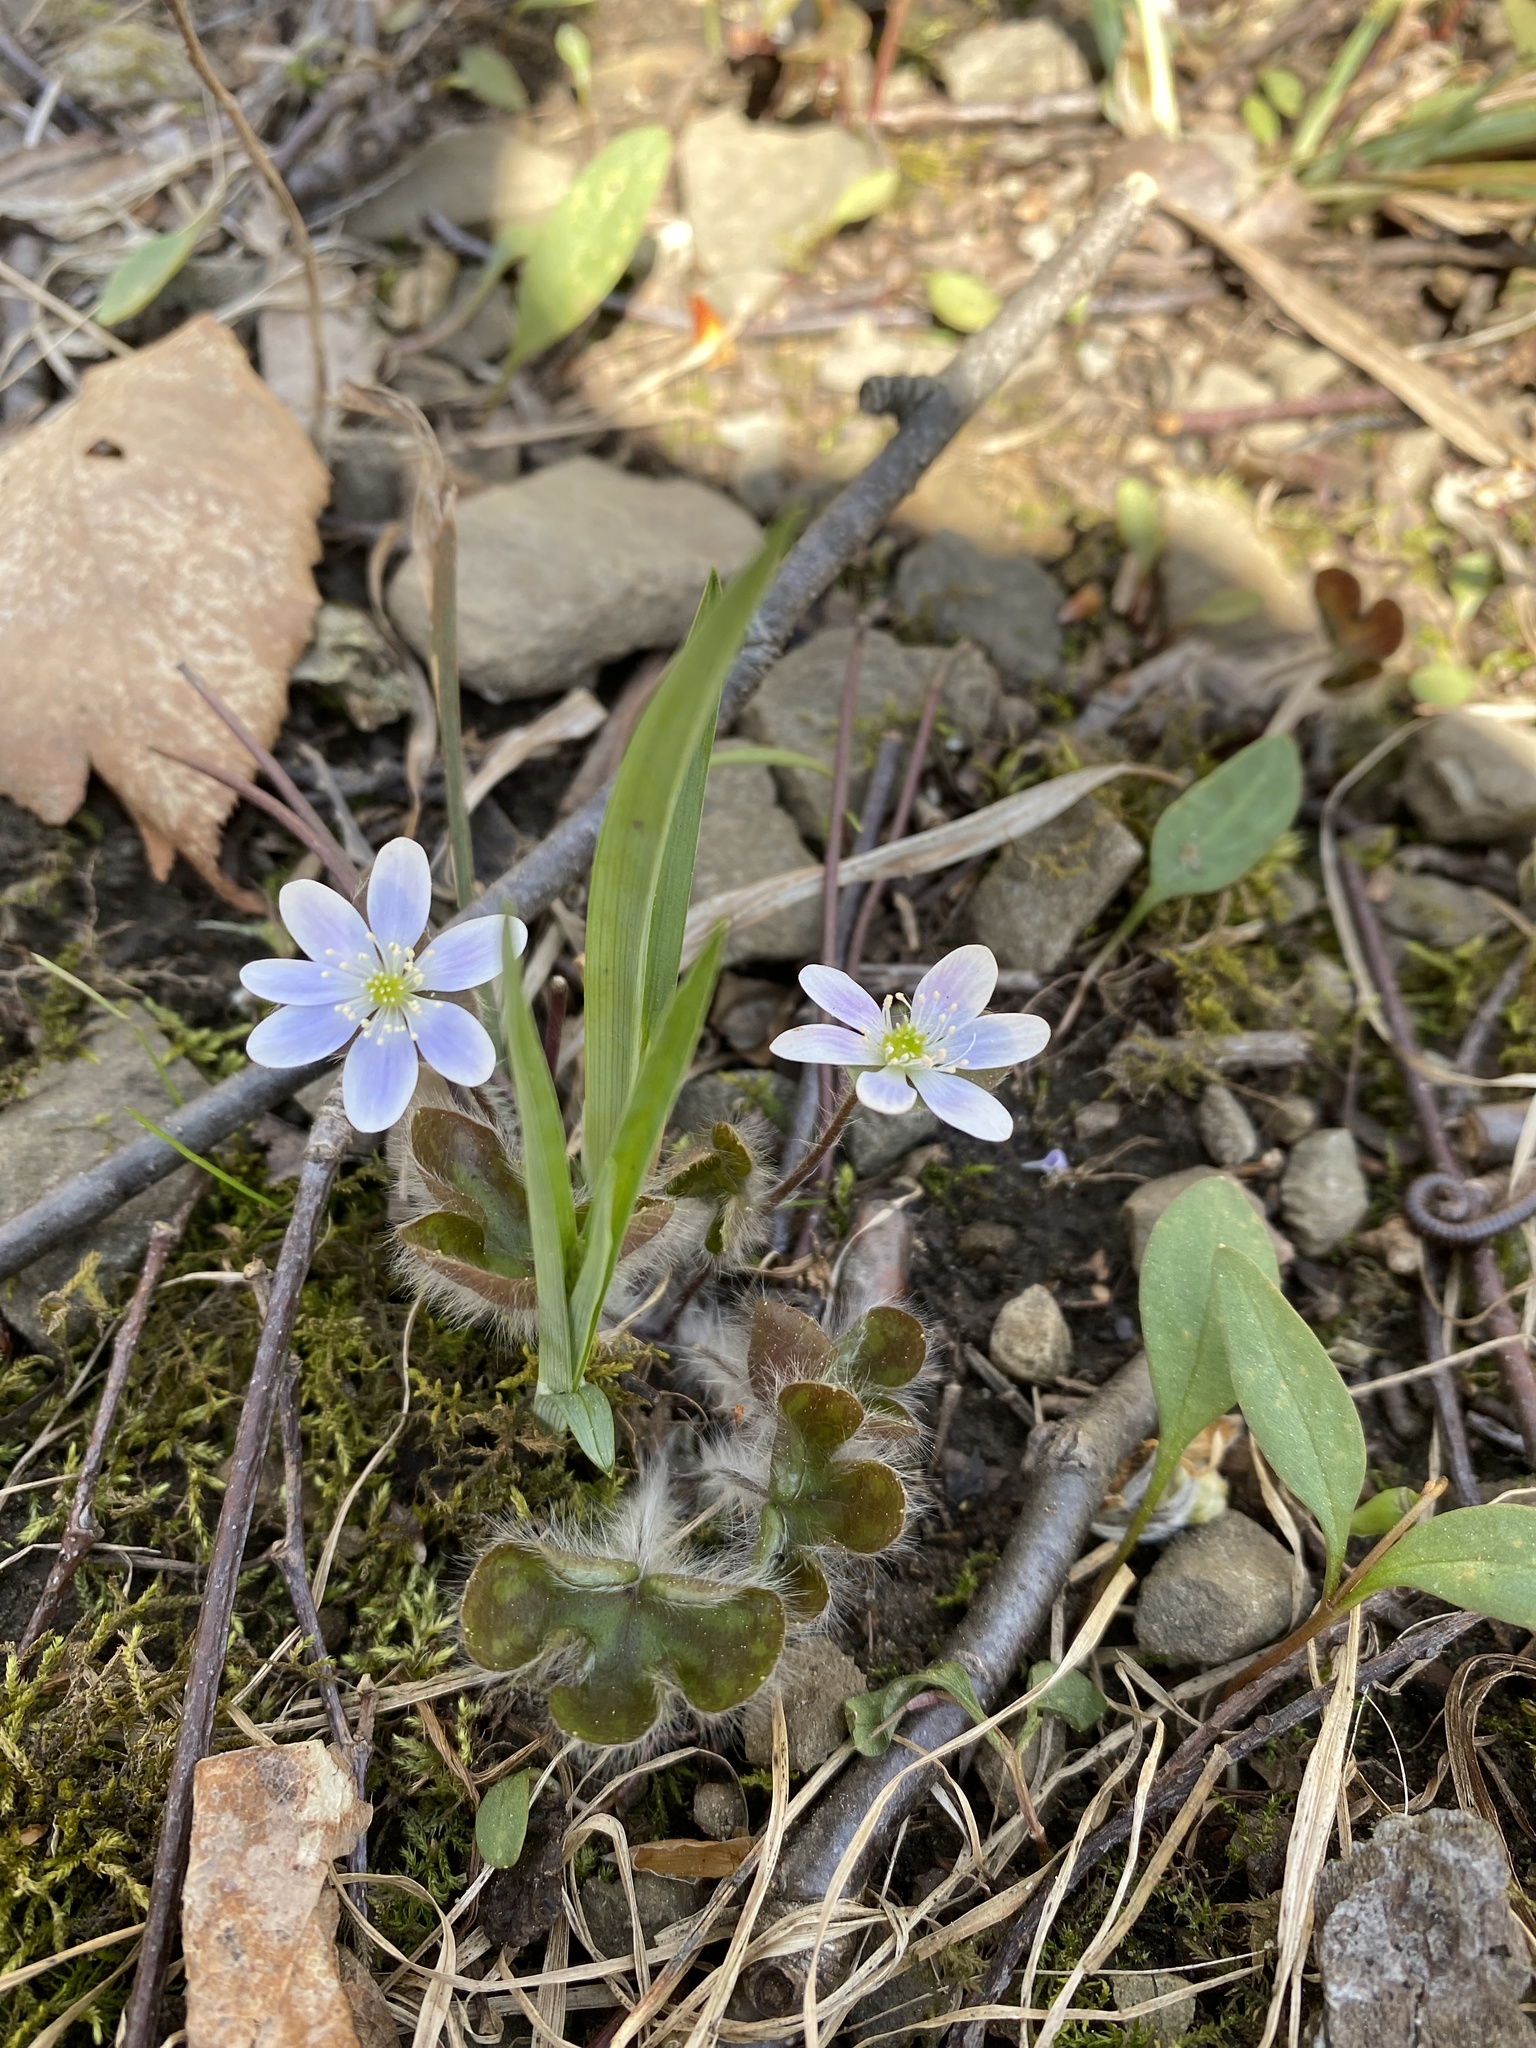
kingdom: Plantae
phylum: Tracheophyta
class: Magnoliopsida
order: Ranunculales
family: Ranunculaceae
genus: Hepatica
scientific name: Hepatica americana
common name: American hepatica
